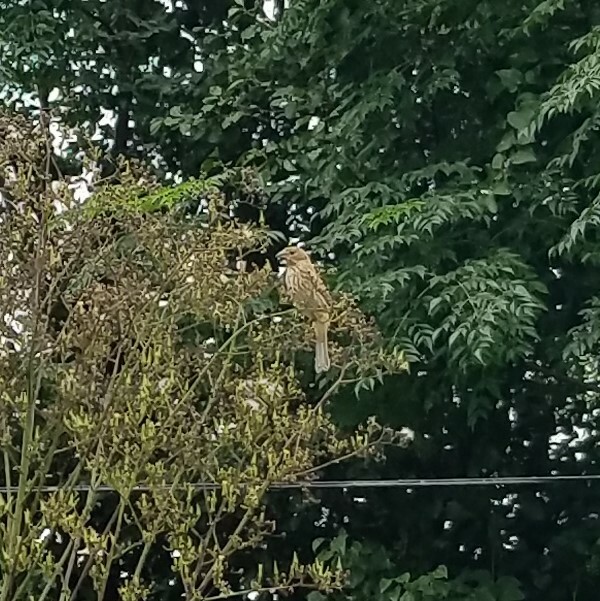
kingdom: Animalia
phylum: Chordata
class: Aves
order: Passeriformes
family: Icteridae
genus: Molothrus
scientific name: Molothrus ater
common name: Brown-headed cowbird
